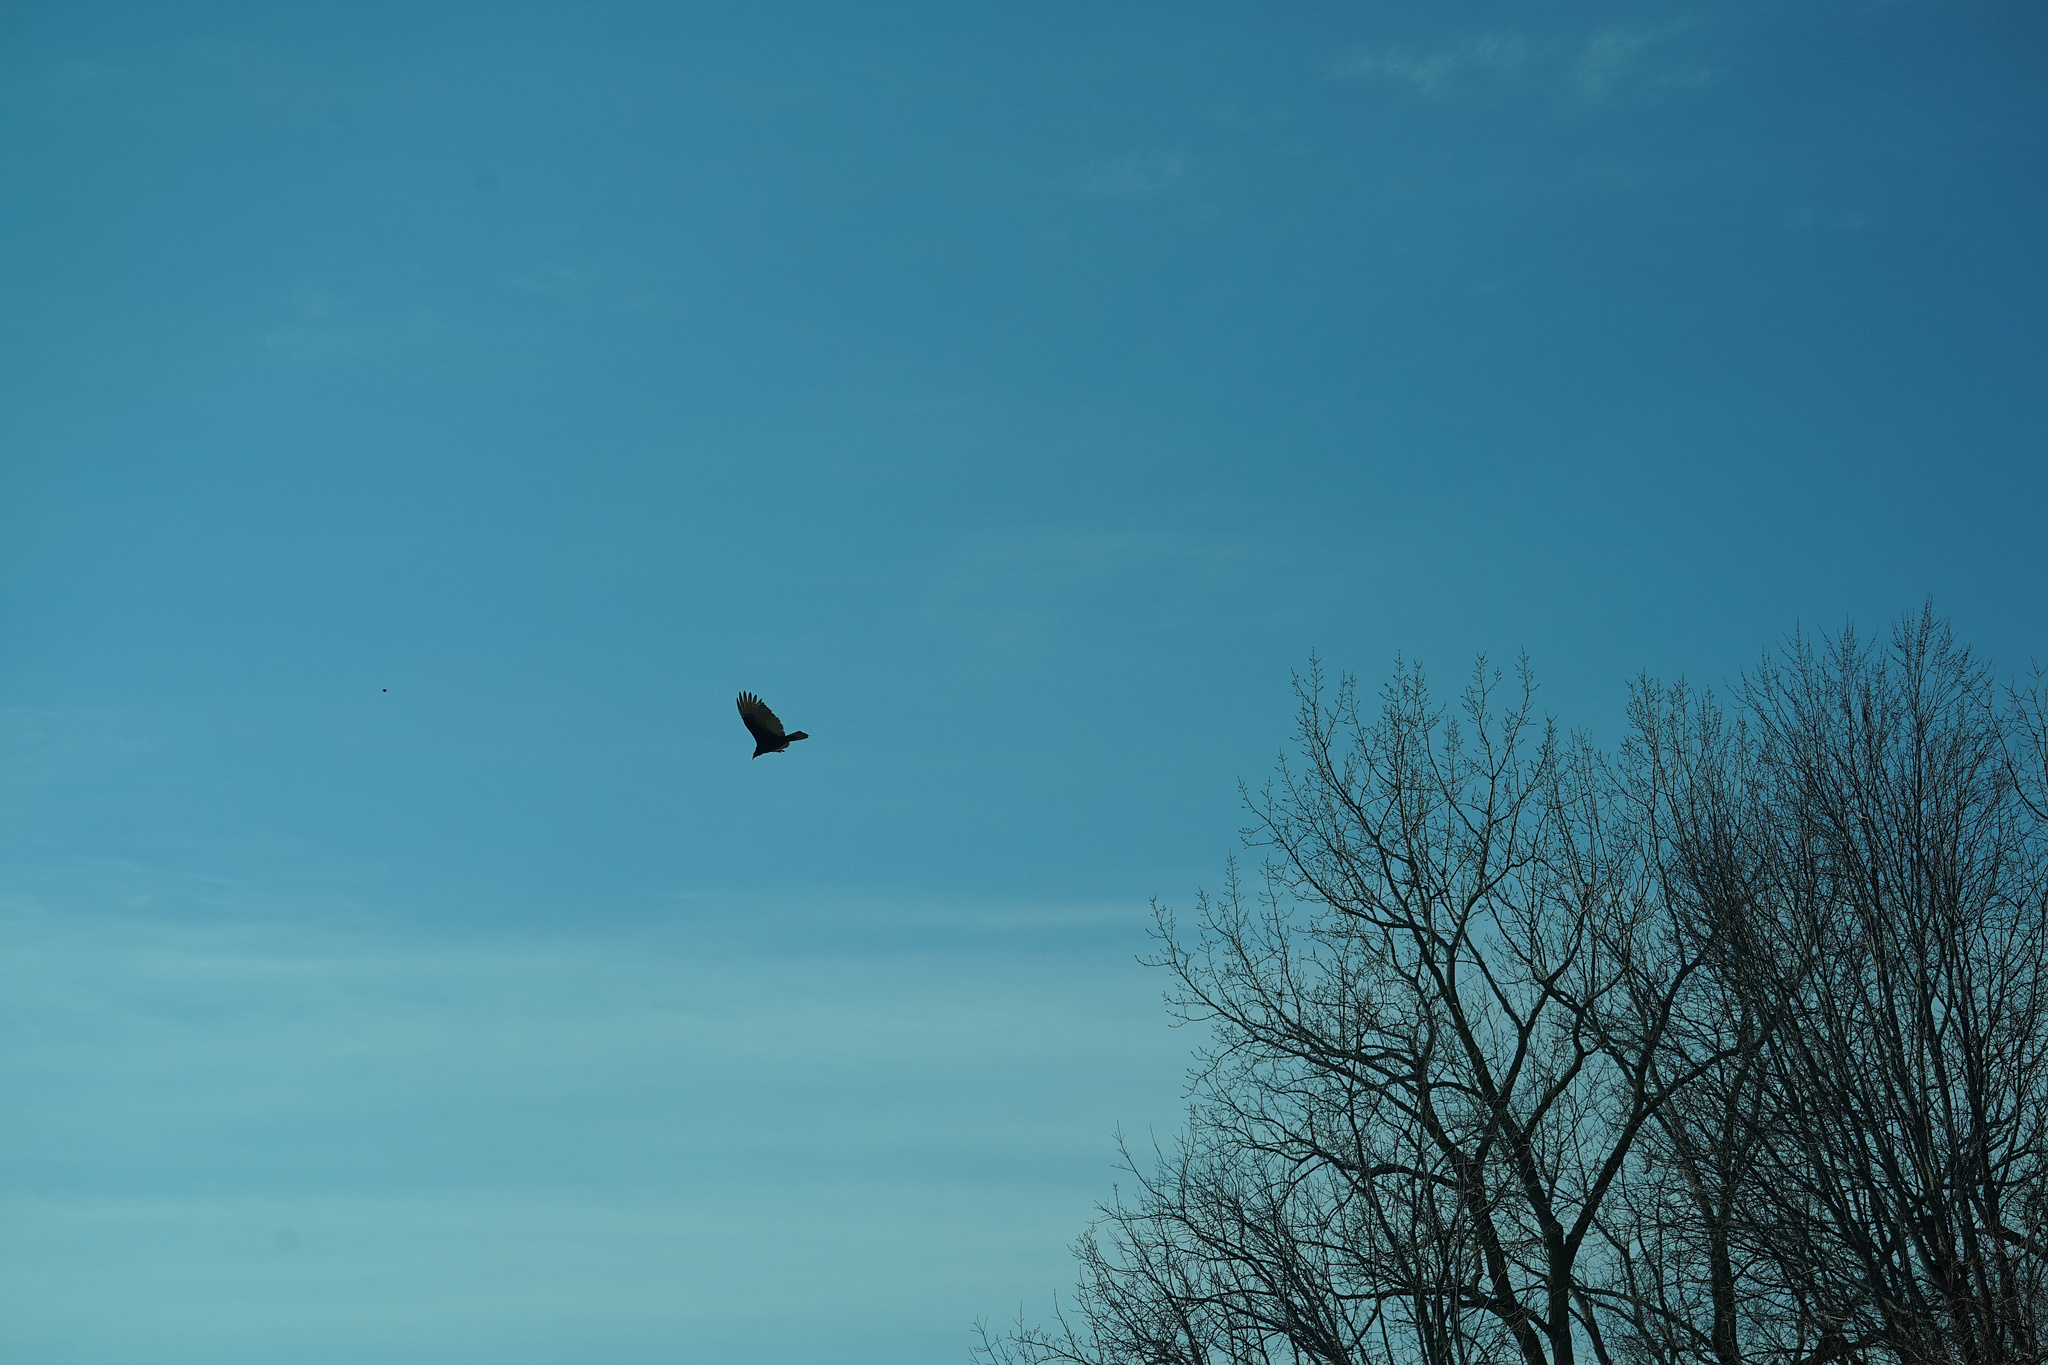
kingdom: Animalia
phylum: Chordata
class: Aves
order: Accipitriformes
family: Cathartidae
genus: Cathartes
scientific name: Cathartes aura
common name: Turkey vulture
